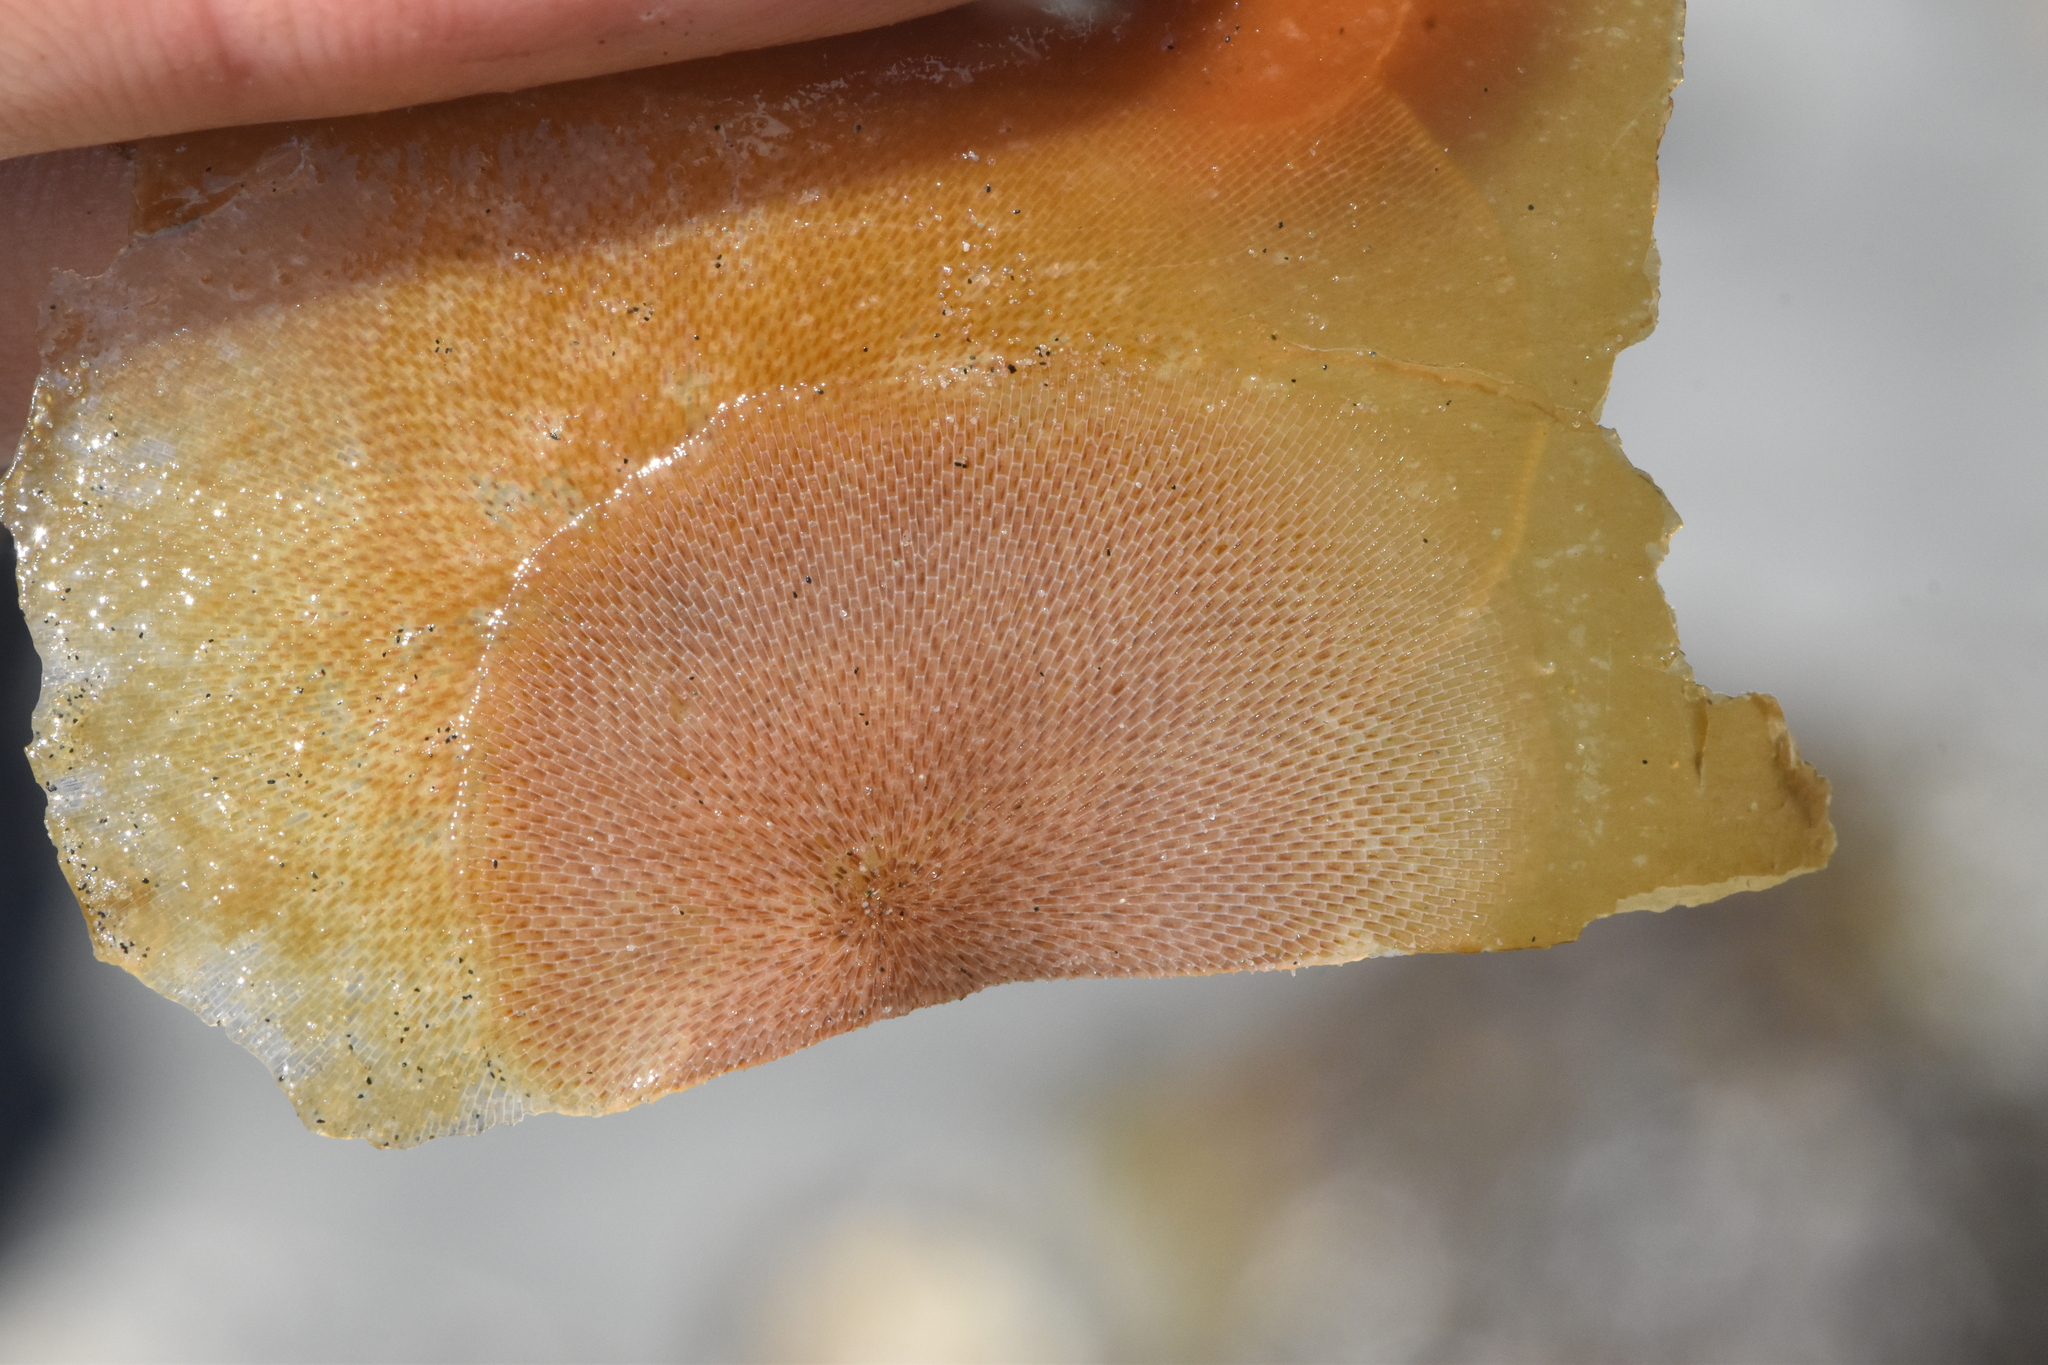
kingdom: Animalia
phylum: Bryozoa
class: Gymnolaemata
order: Cheilostomatida
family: Membraniporidae
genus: Membranipora
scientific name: Membranipora membranacea
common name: Sea mat
